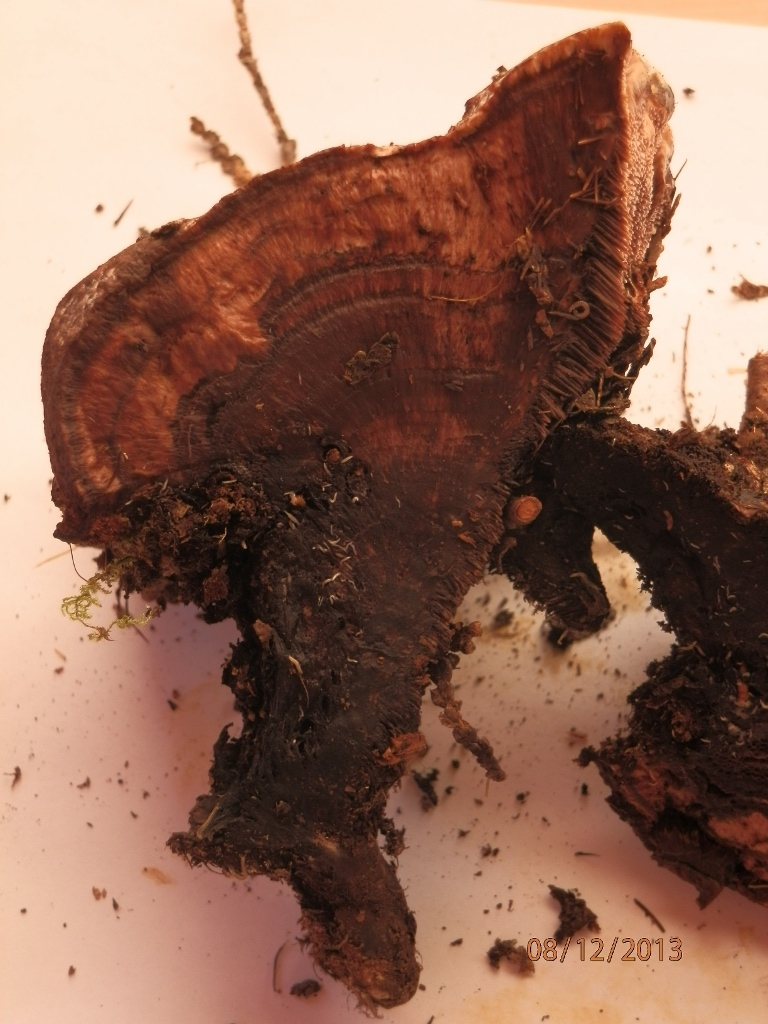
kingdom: Fungi
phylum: Basidiomycota
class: Agaricomycetes
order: Thelephorales
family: Bankeraceae
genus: Hydnellum
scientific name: Hydnellum peckii
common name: Devil's tooth
